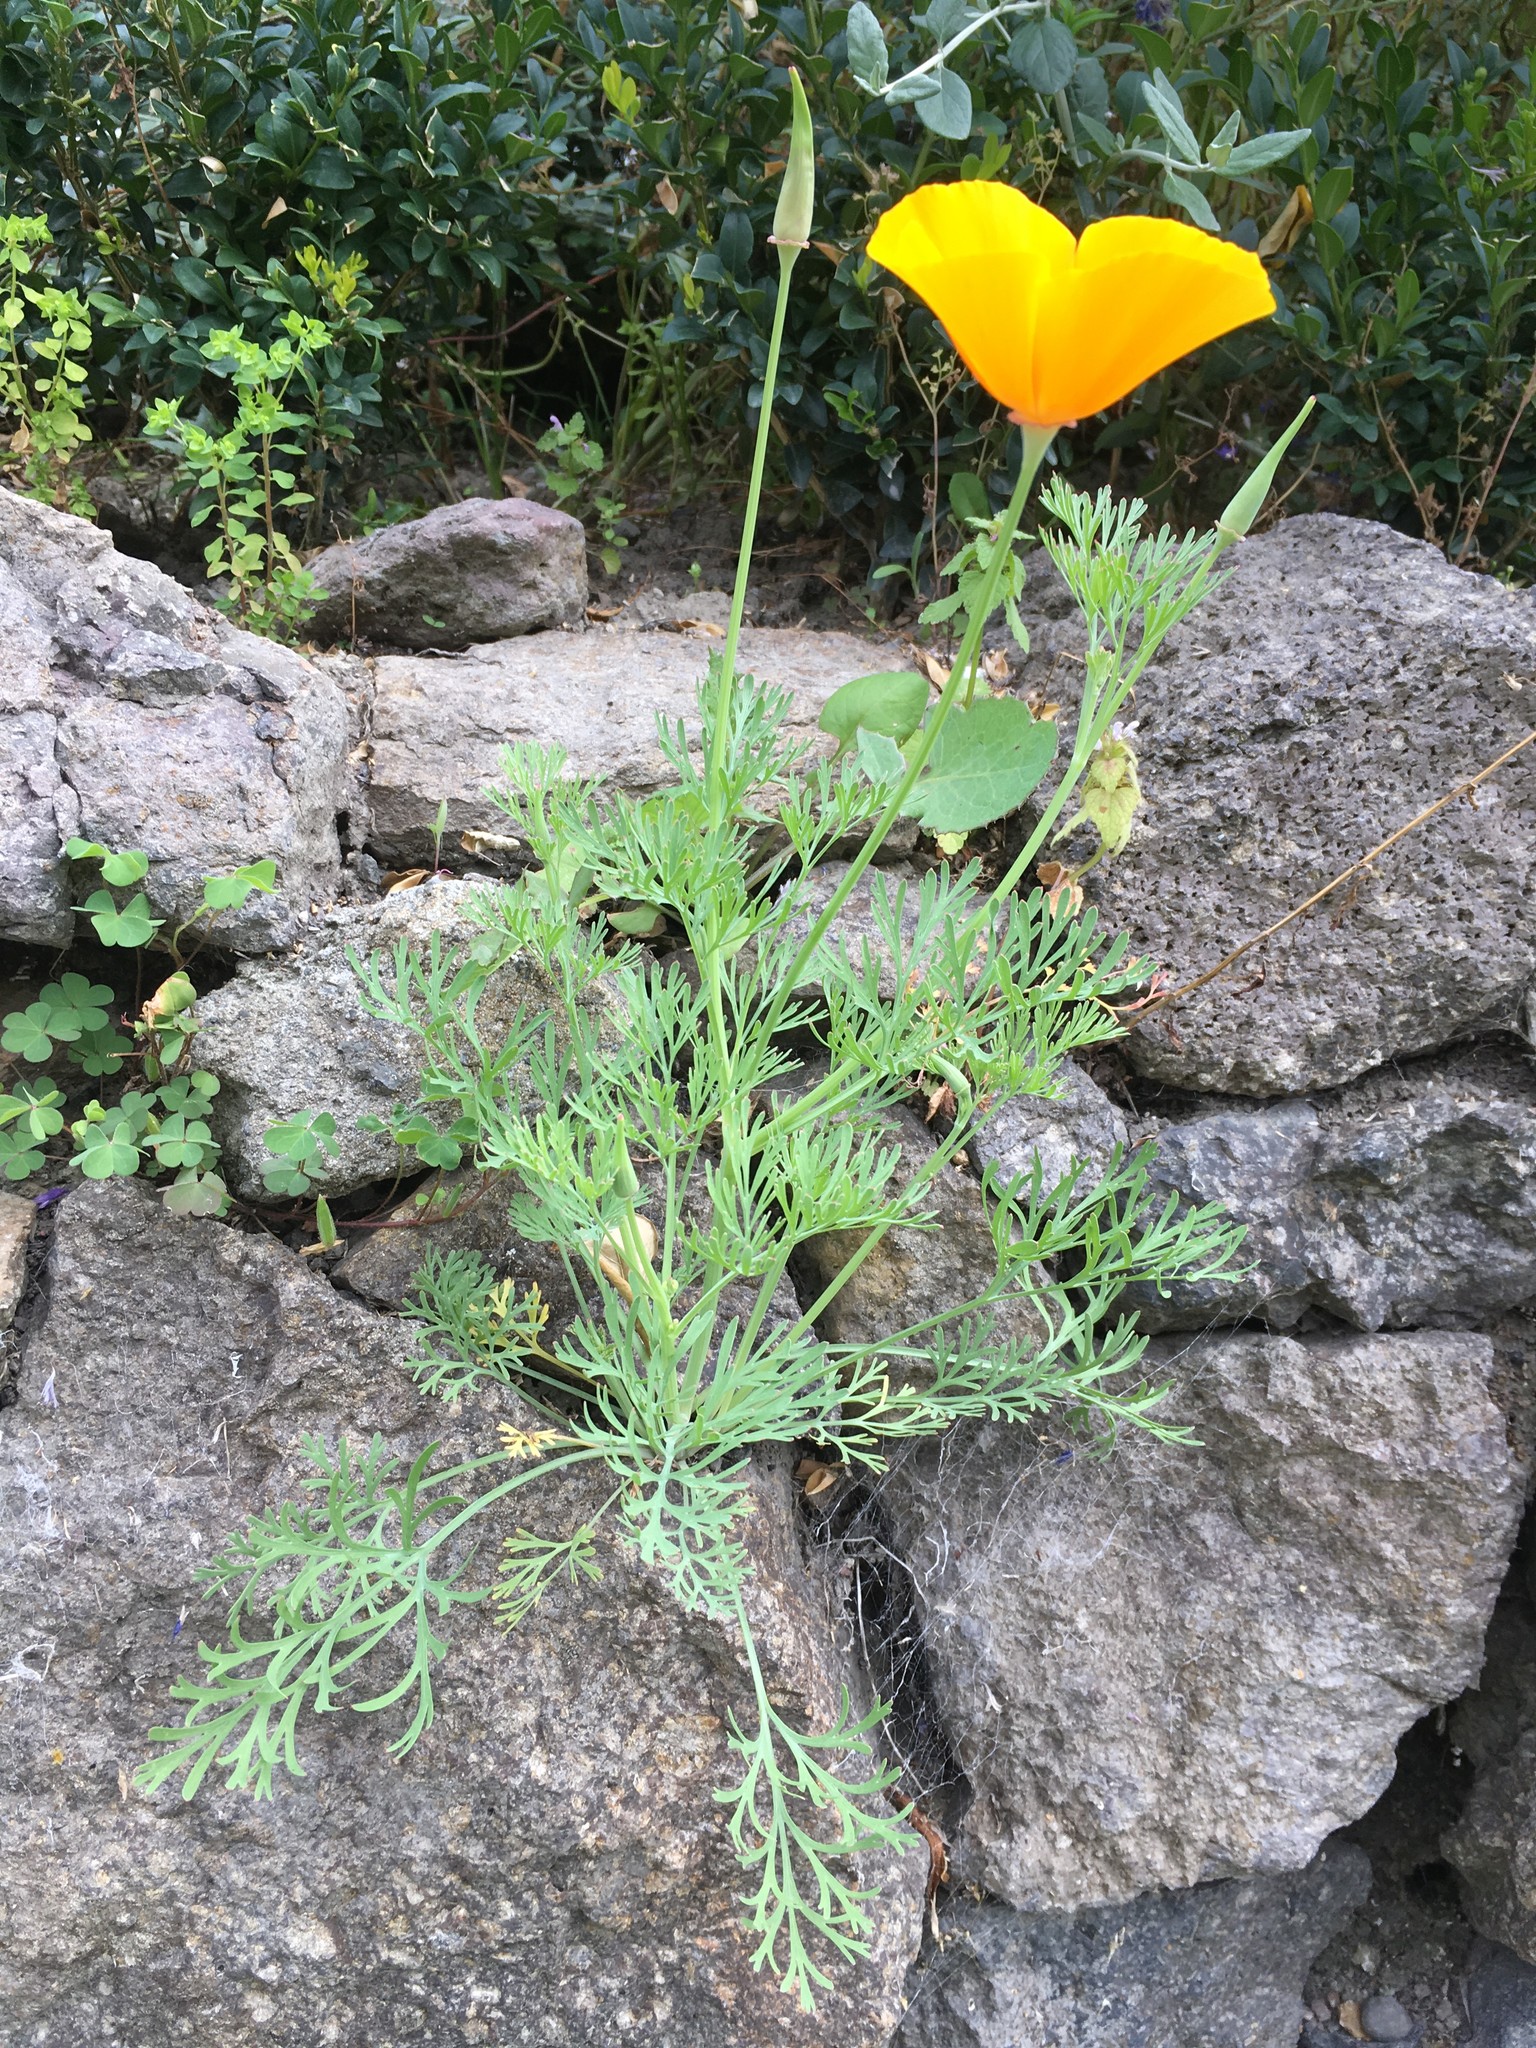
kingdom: Plantae
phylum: Tracheophyta
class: Magnoliopsida
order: Ranunculales
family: Papaveraceae
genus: Eschscholzia
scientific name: Eschscholzia californica
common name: California poppy
